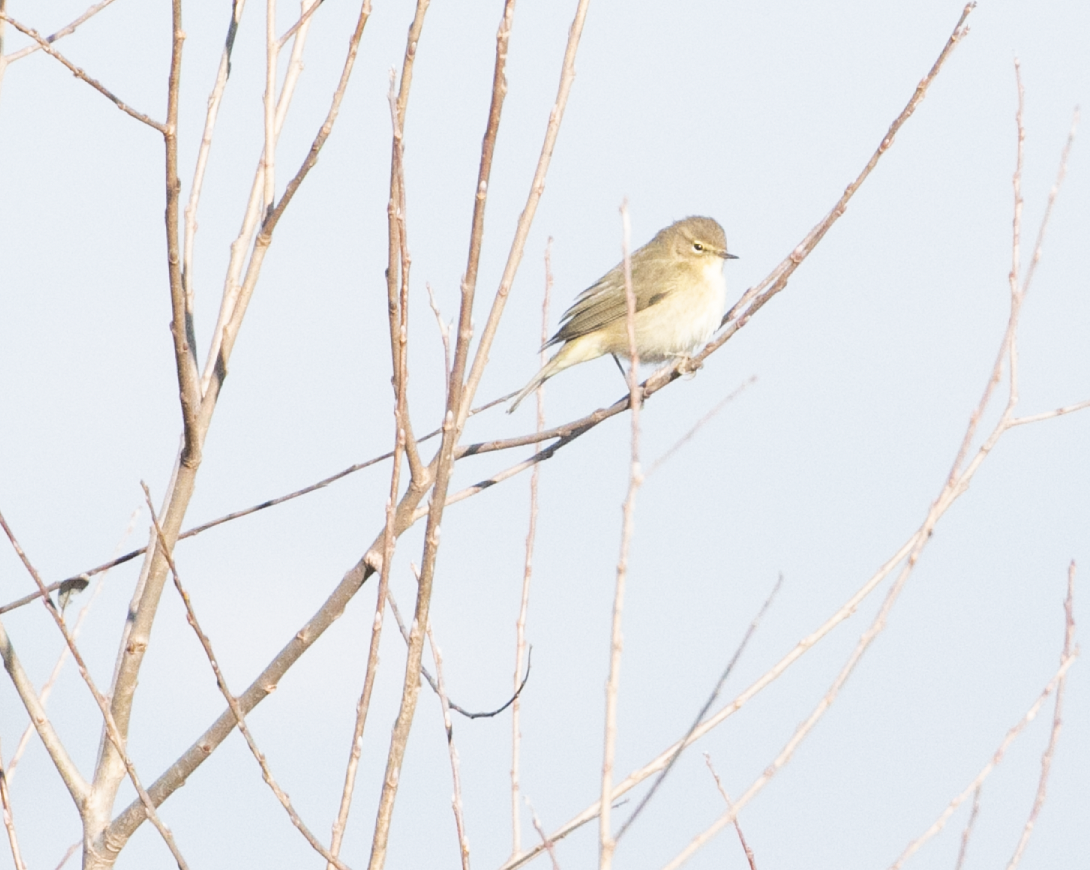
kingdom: Animalia
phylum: Chordata
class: Aves
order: Passeriformes
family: Phylloscopidae
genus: Phylloscopus
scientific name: Phylloscopus collybita
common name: Common chiffchaff
